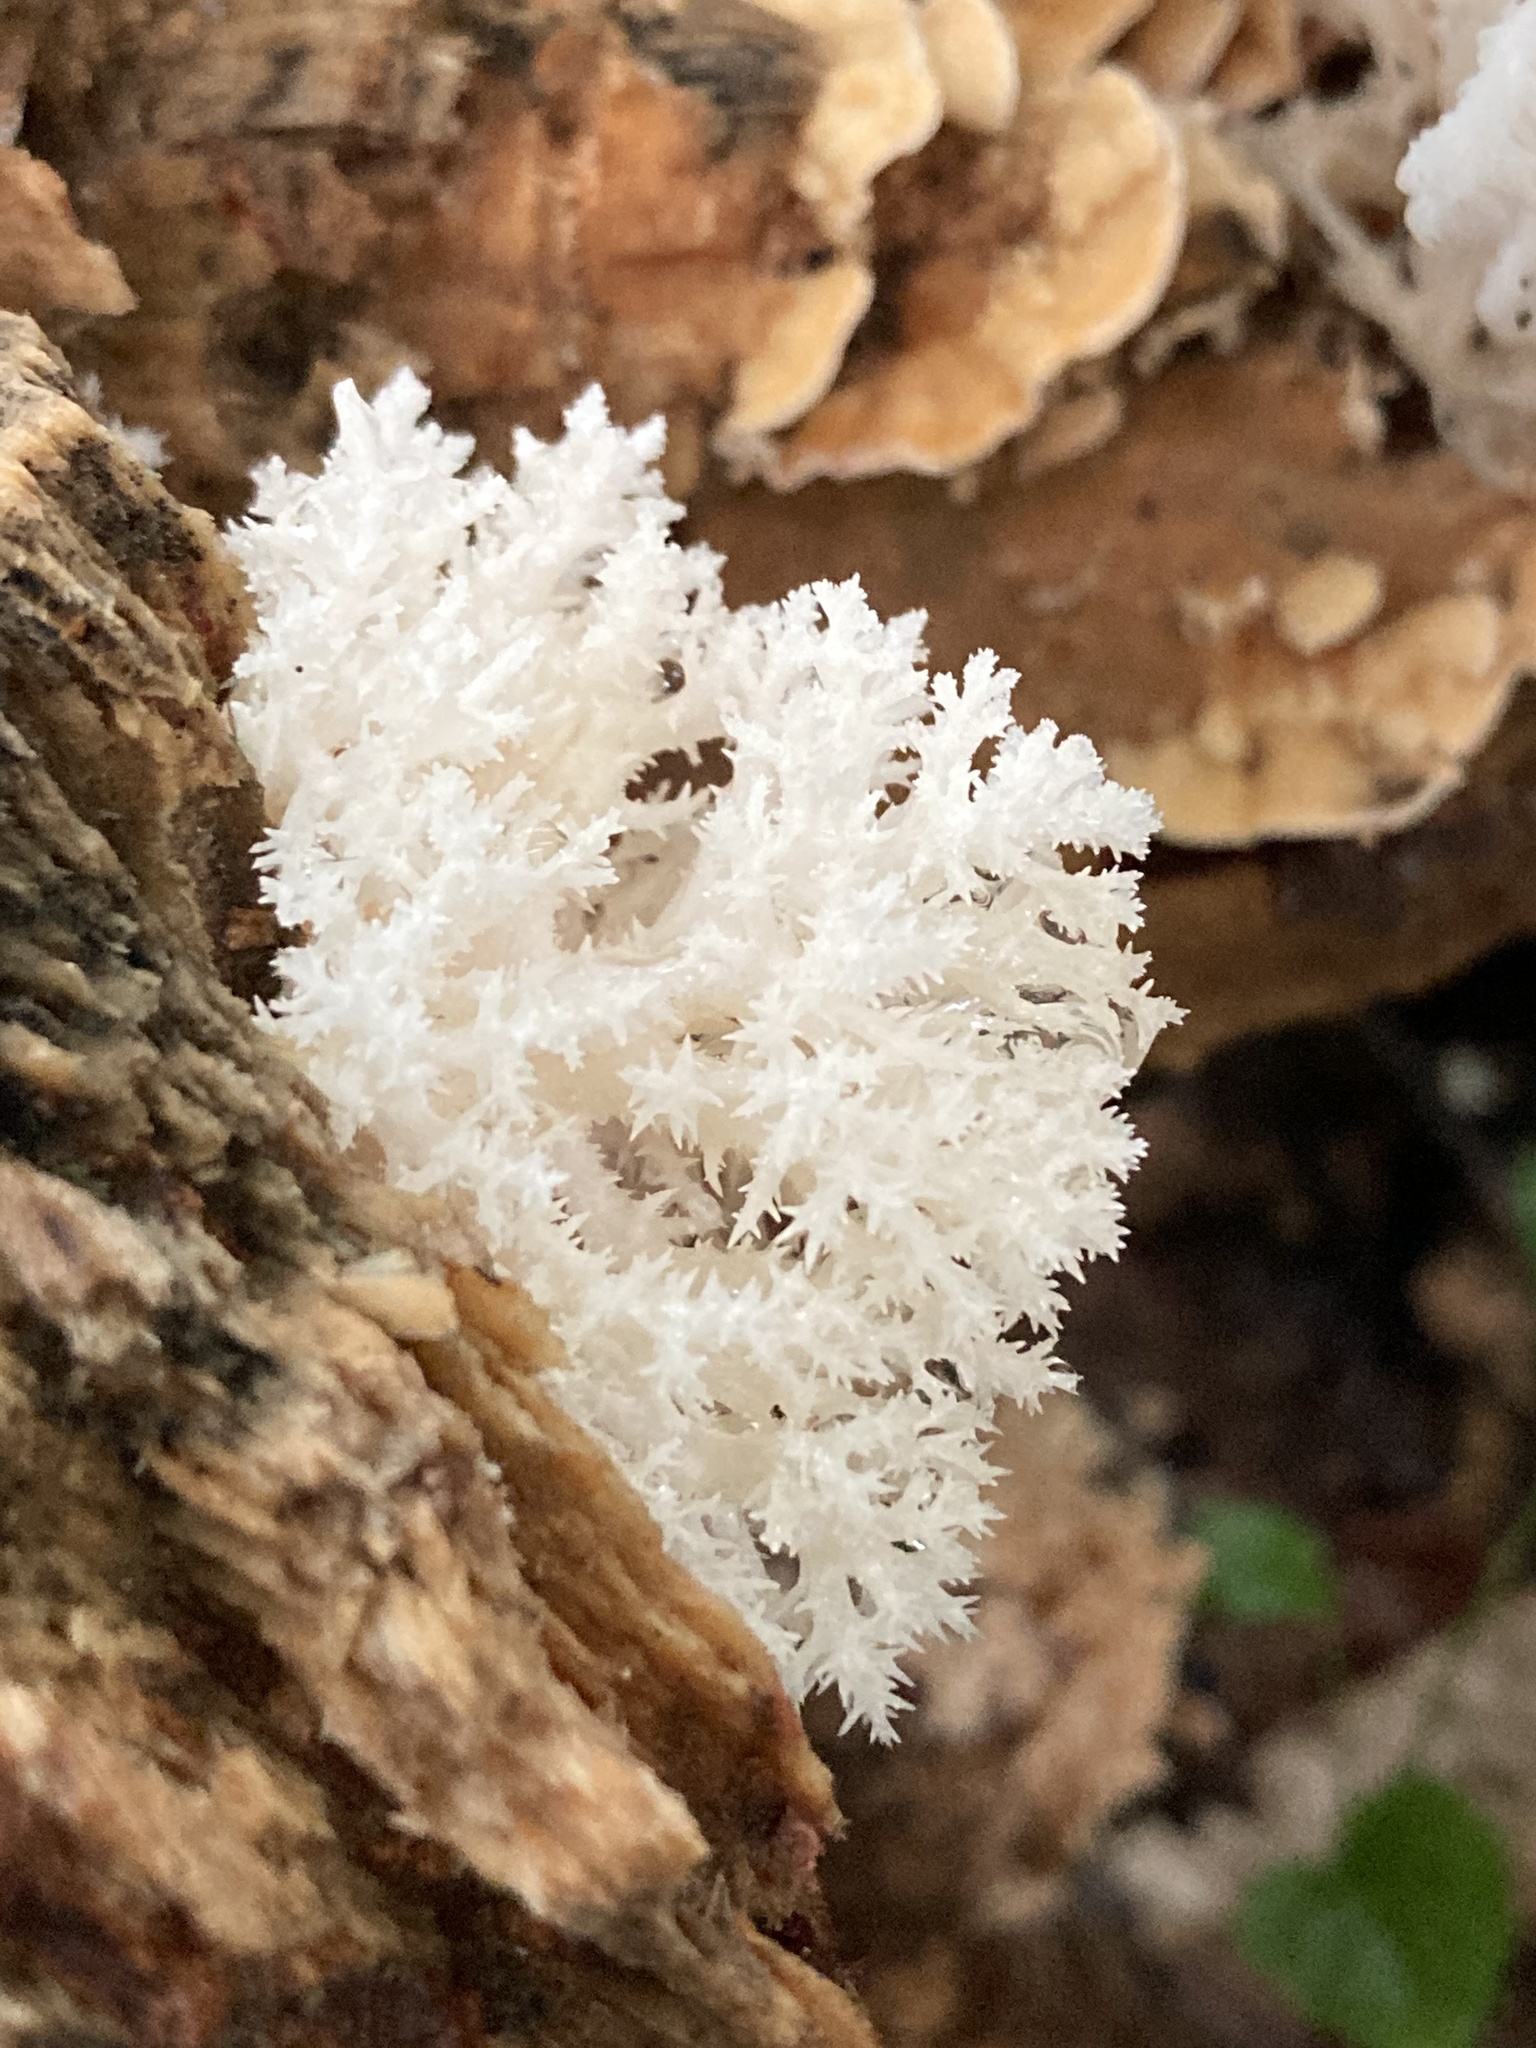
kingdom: Fungi
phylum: Basidiomycota
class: Agaricomycetes
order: Russulales
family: Hericiaceae
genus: Hericium
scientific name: Hericium coralloides
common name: Coral tooth
